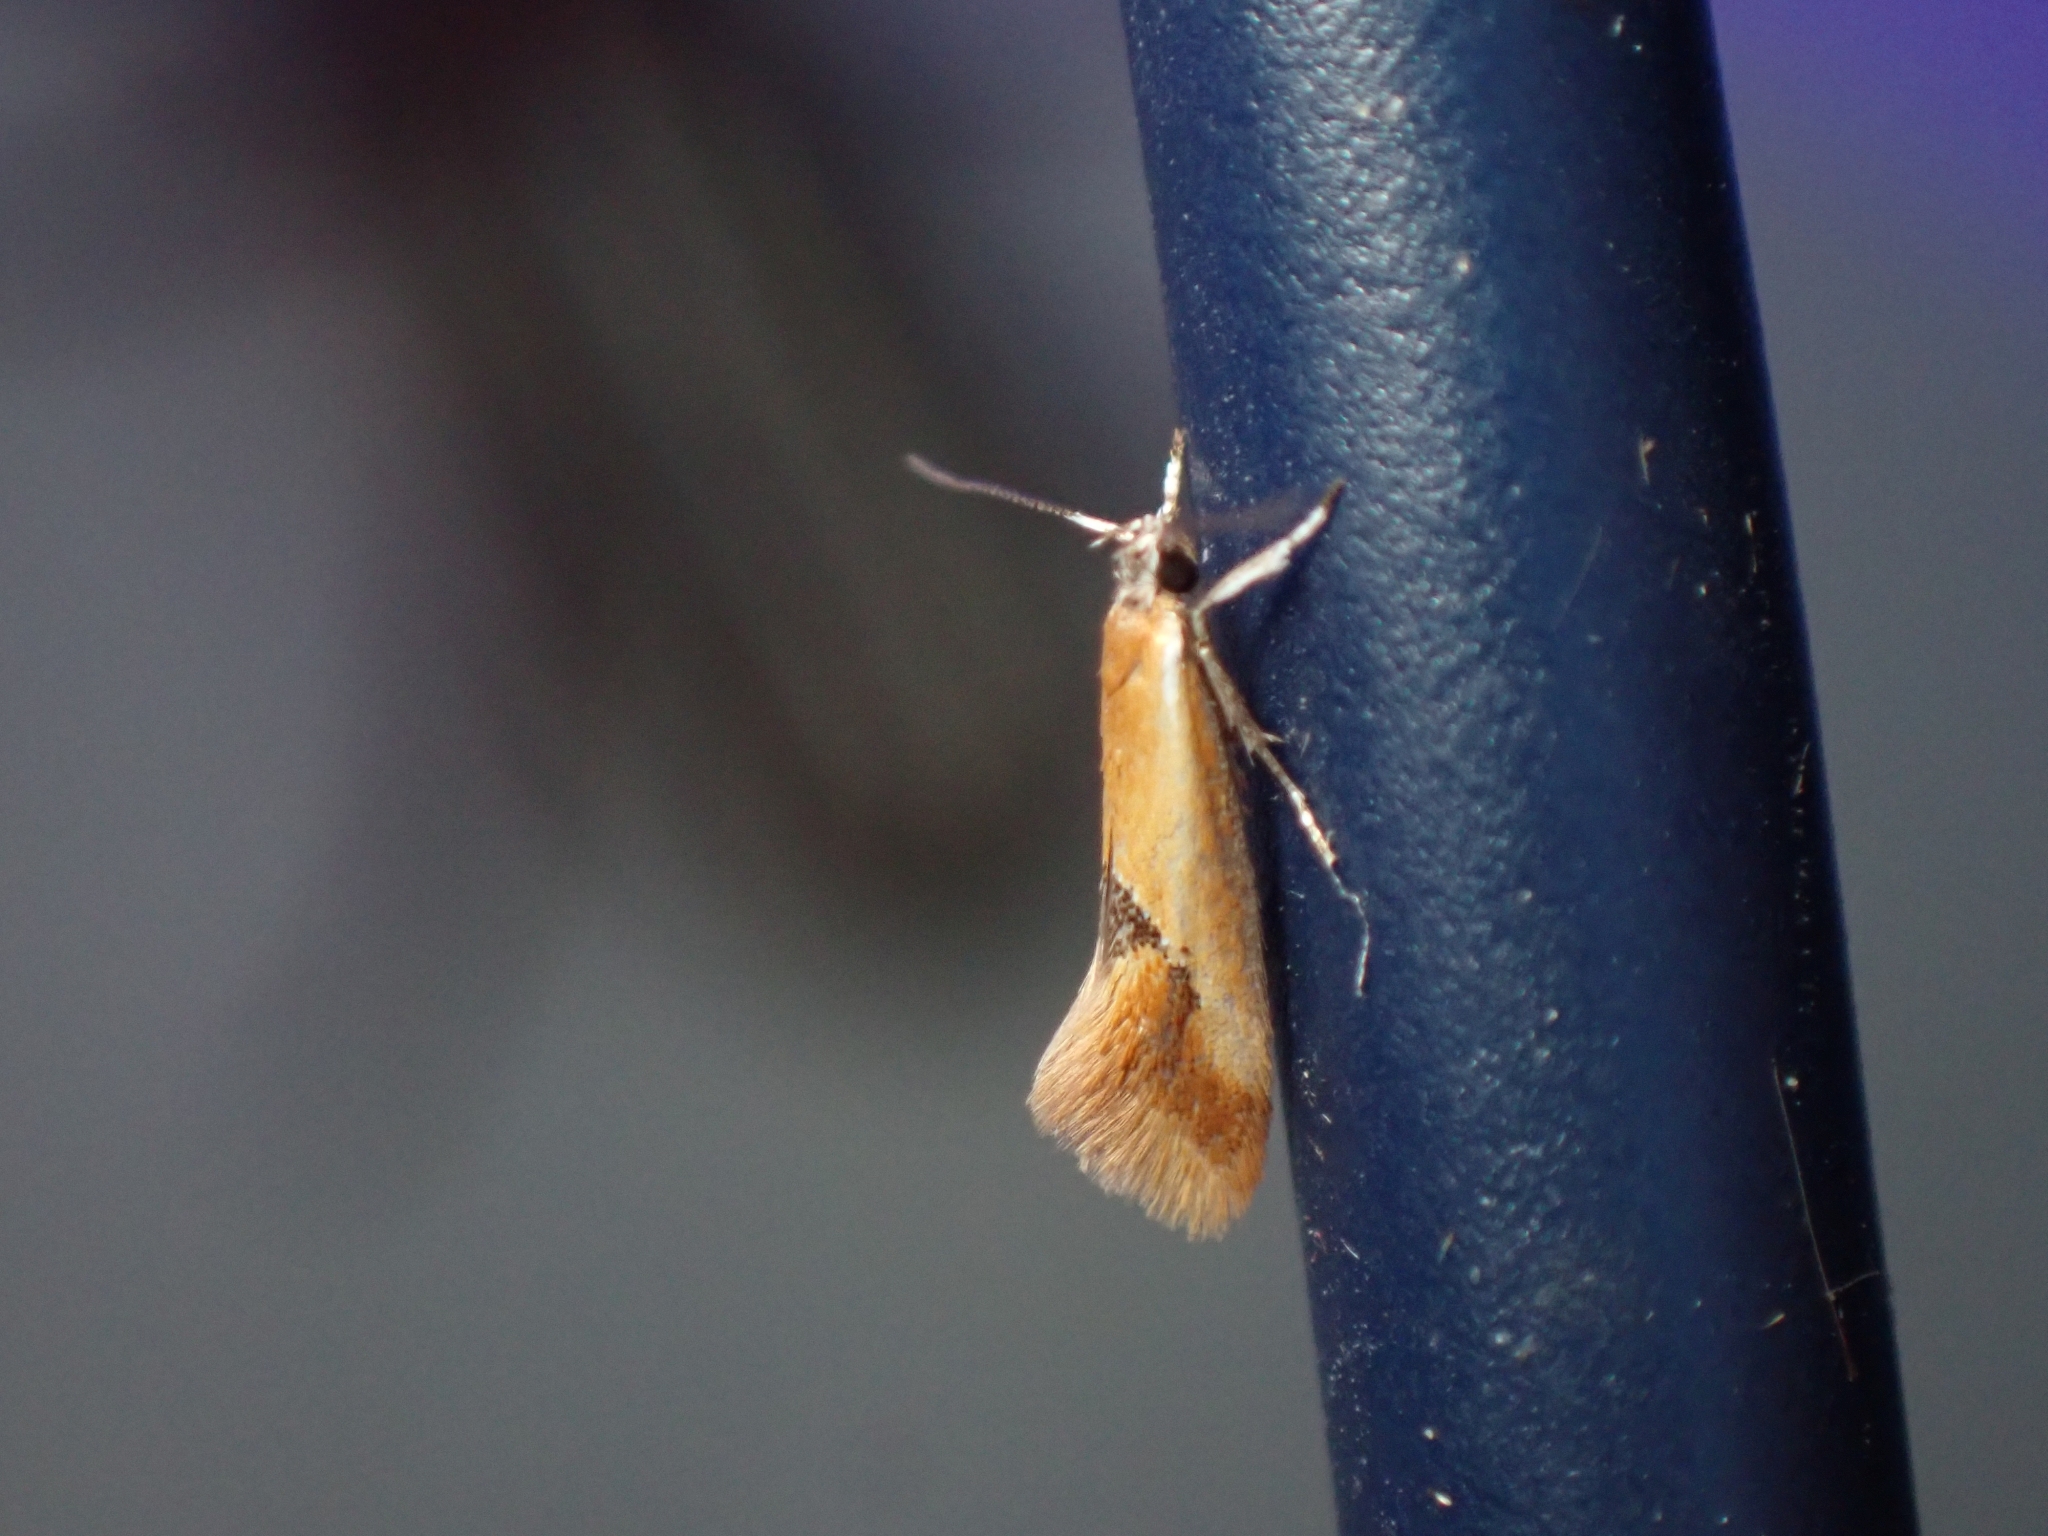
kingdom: Animalia
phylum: Arthropoda
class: Insecta
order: Lepidoptera
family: Oecophoridae
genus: Batia
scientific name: Batia lunaris
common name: Moth
